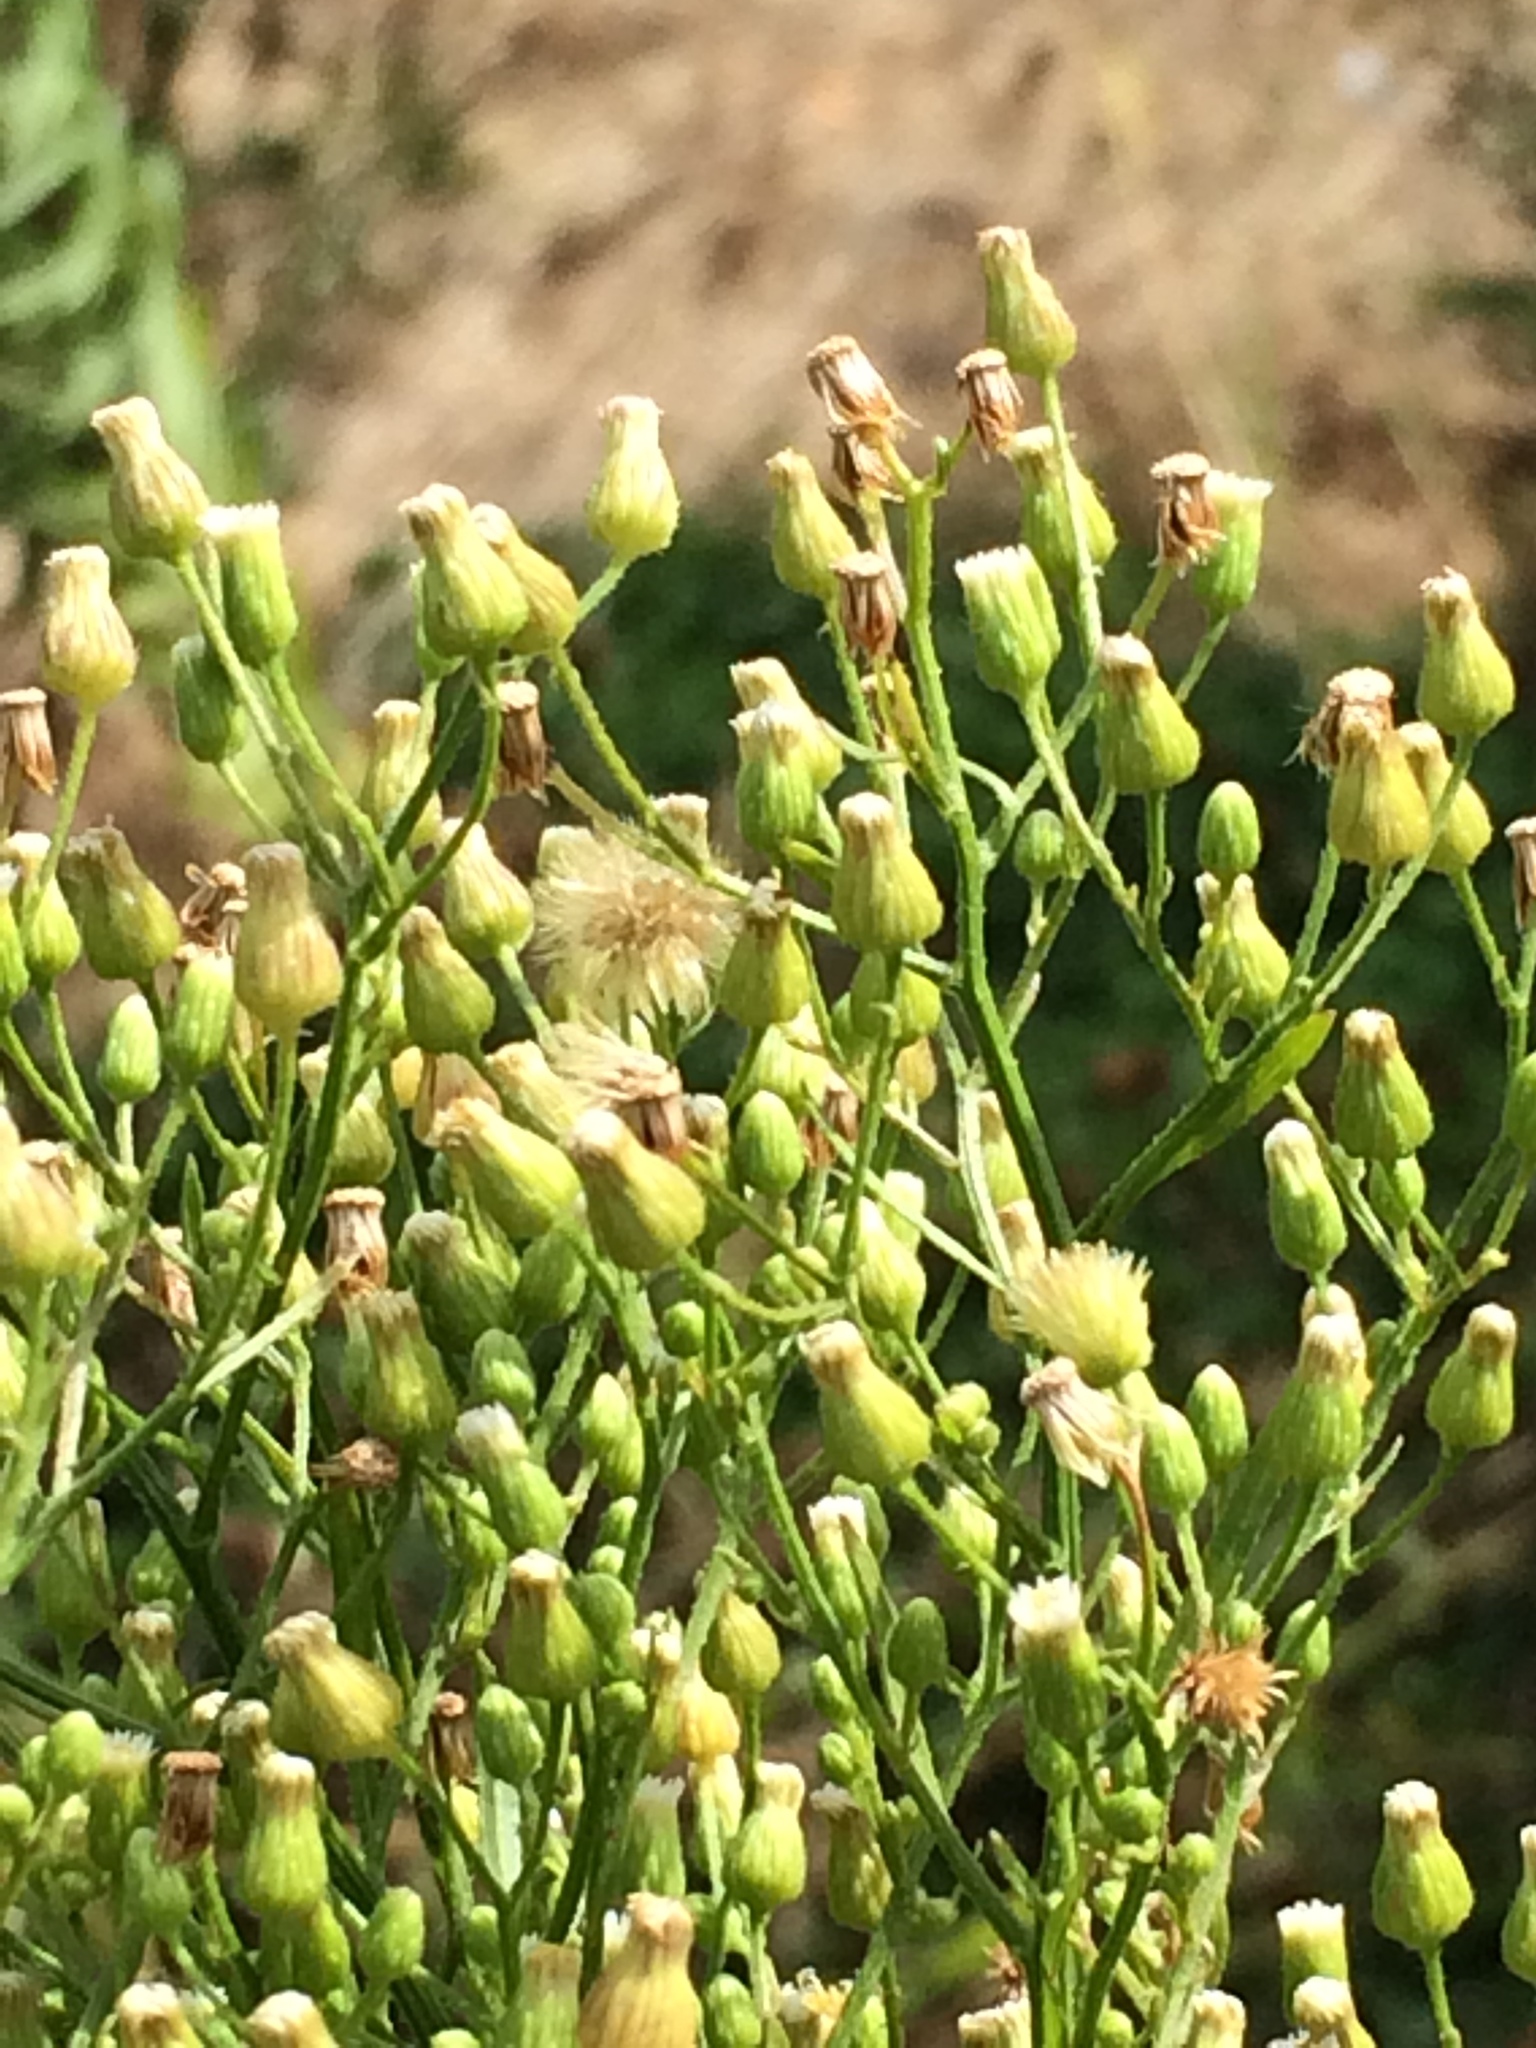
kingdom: Plantae
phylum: Tracheophyta
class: Magnoliopsida
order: Asterales
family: Asteraceae
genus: Erigeron
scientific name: Erigeron canadensis
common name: Canadian fleabane
